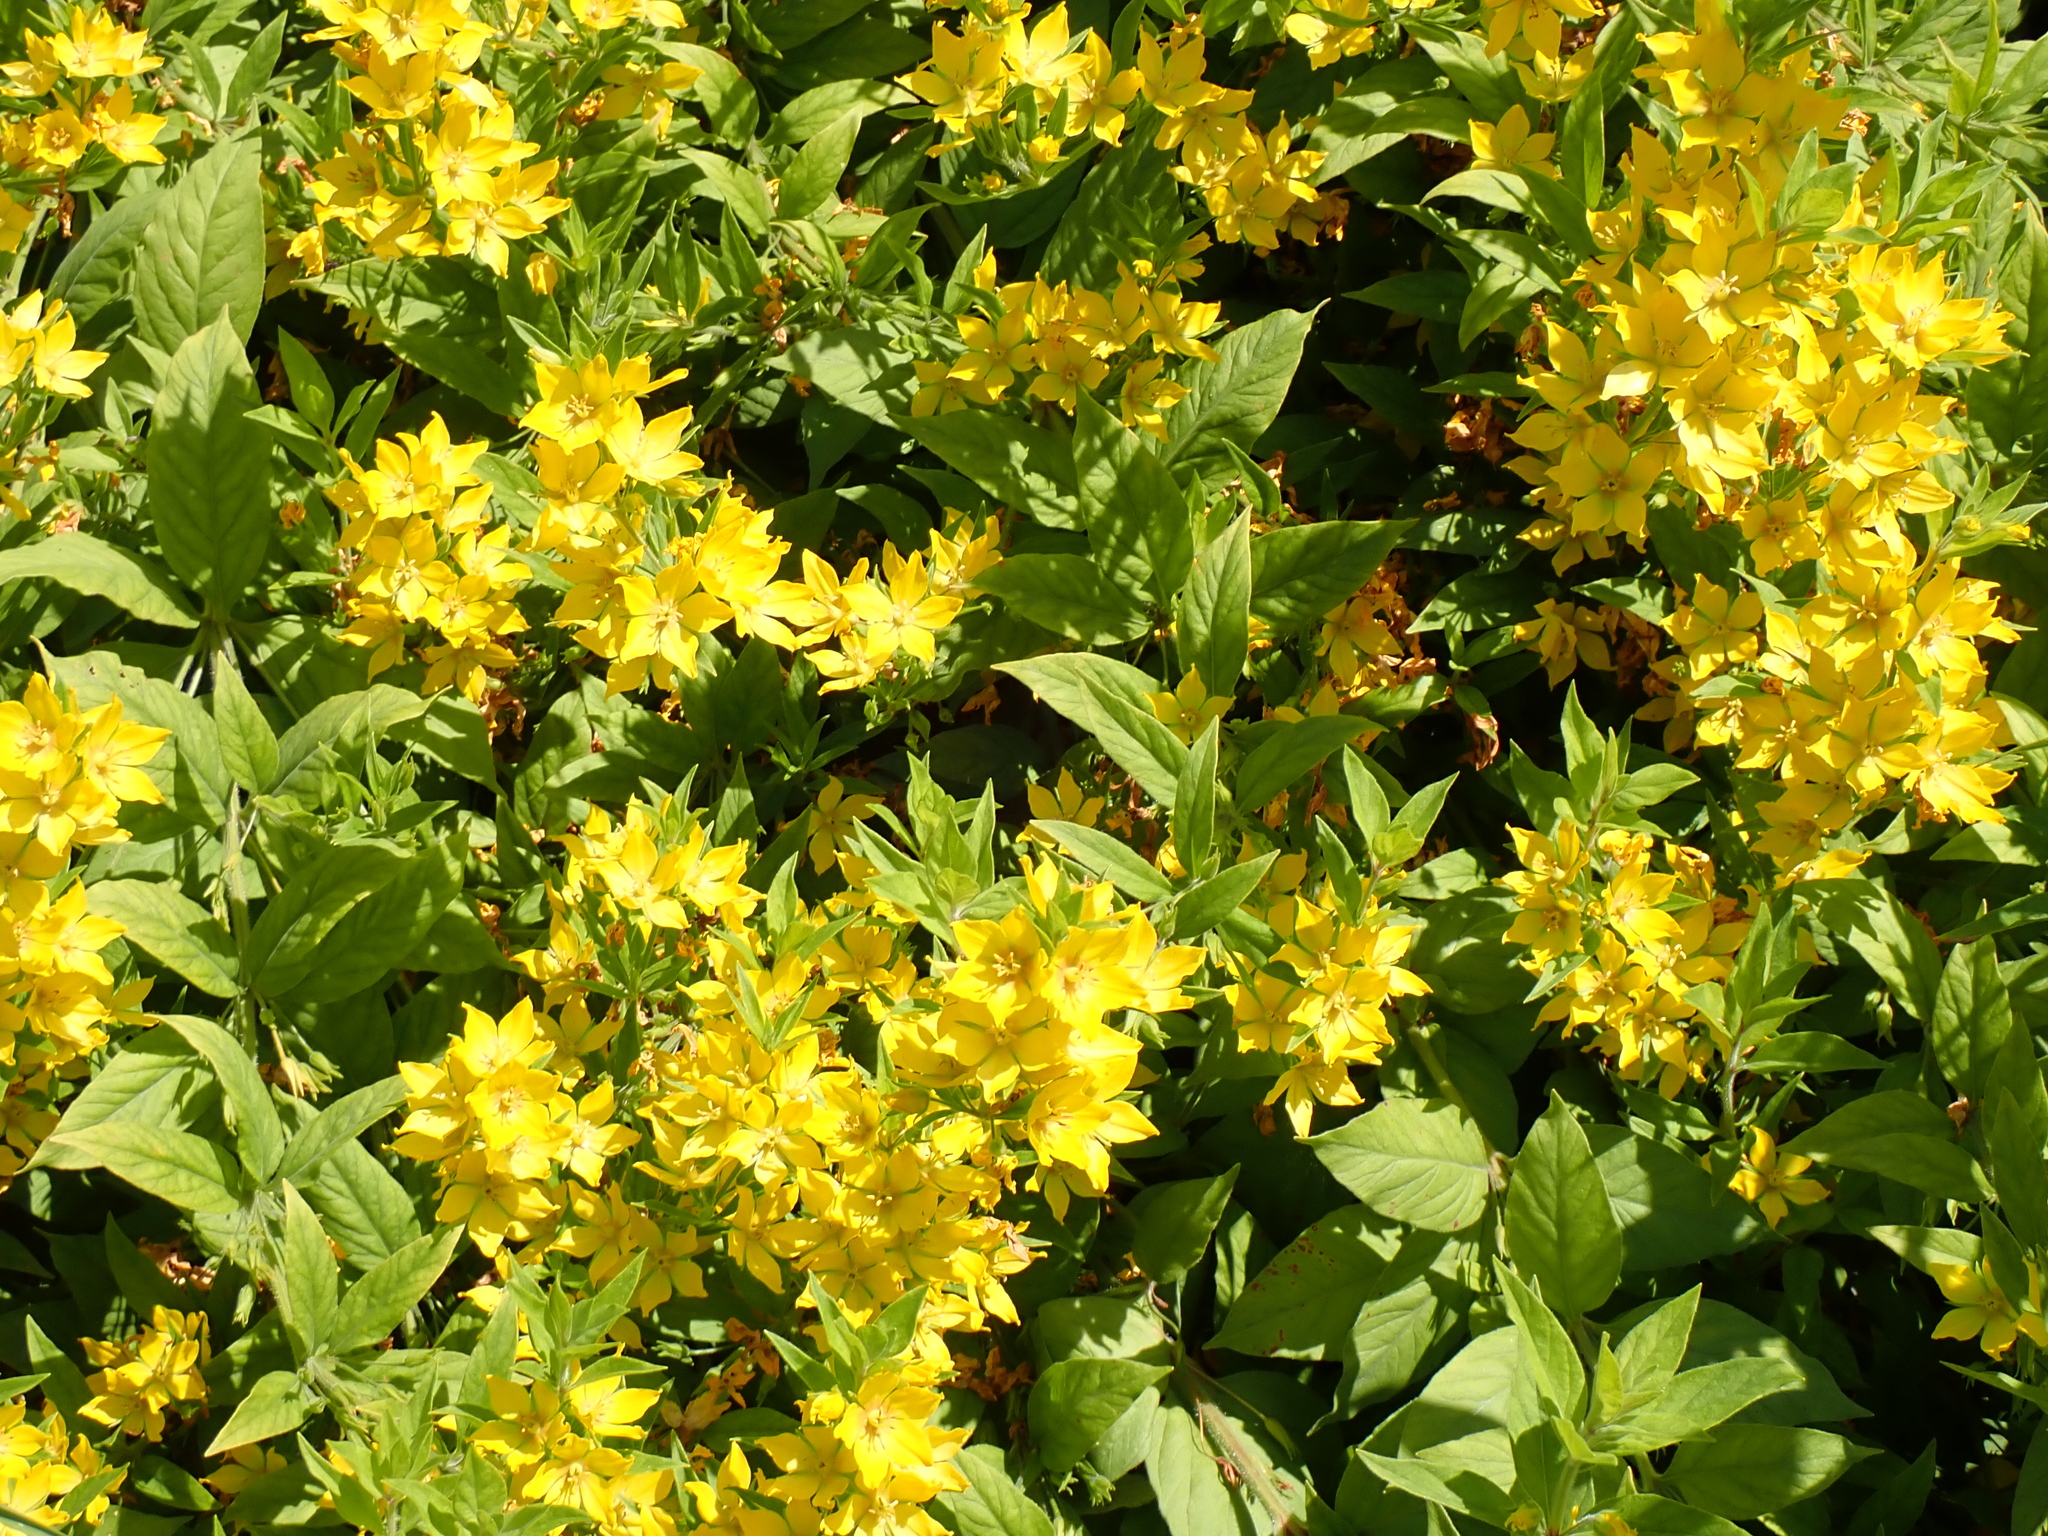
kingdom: Plantae
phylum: Tracheophyta
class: Magnoliopsida
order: Ericales
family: Primulaceae
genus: Lysimachia
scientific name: Lysimachia punctata
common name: Dotted loosestrife
